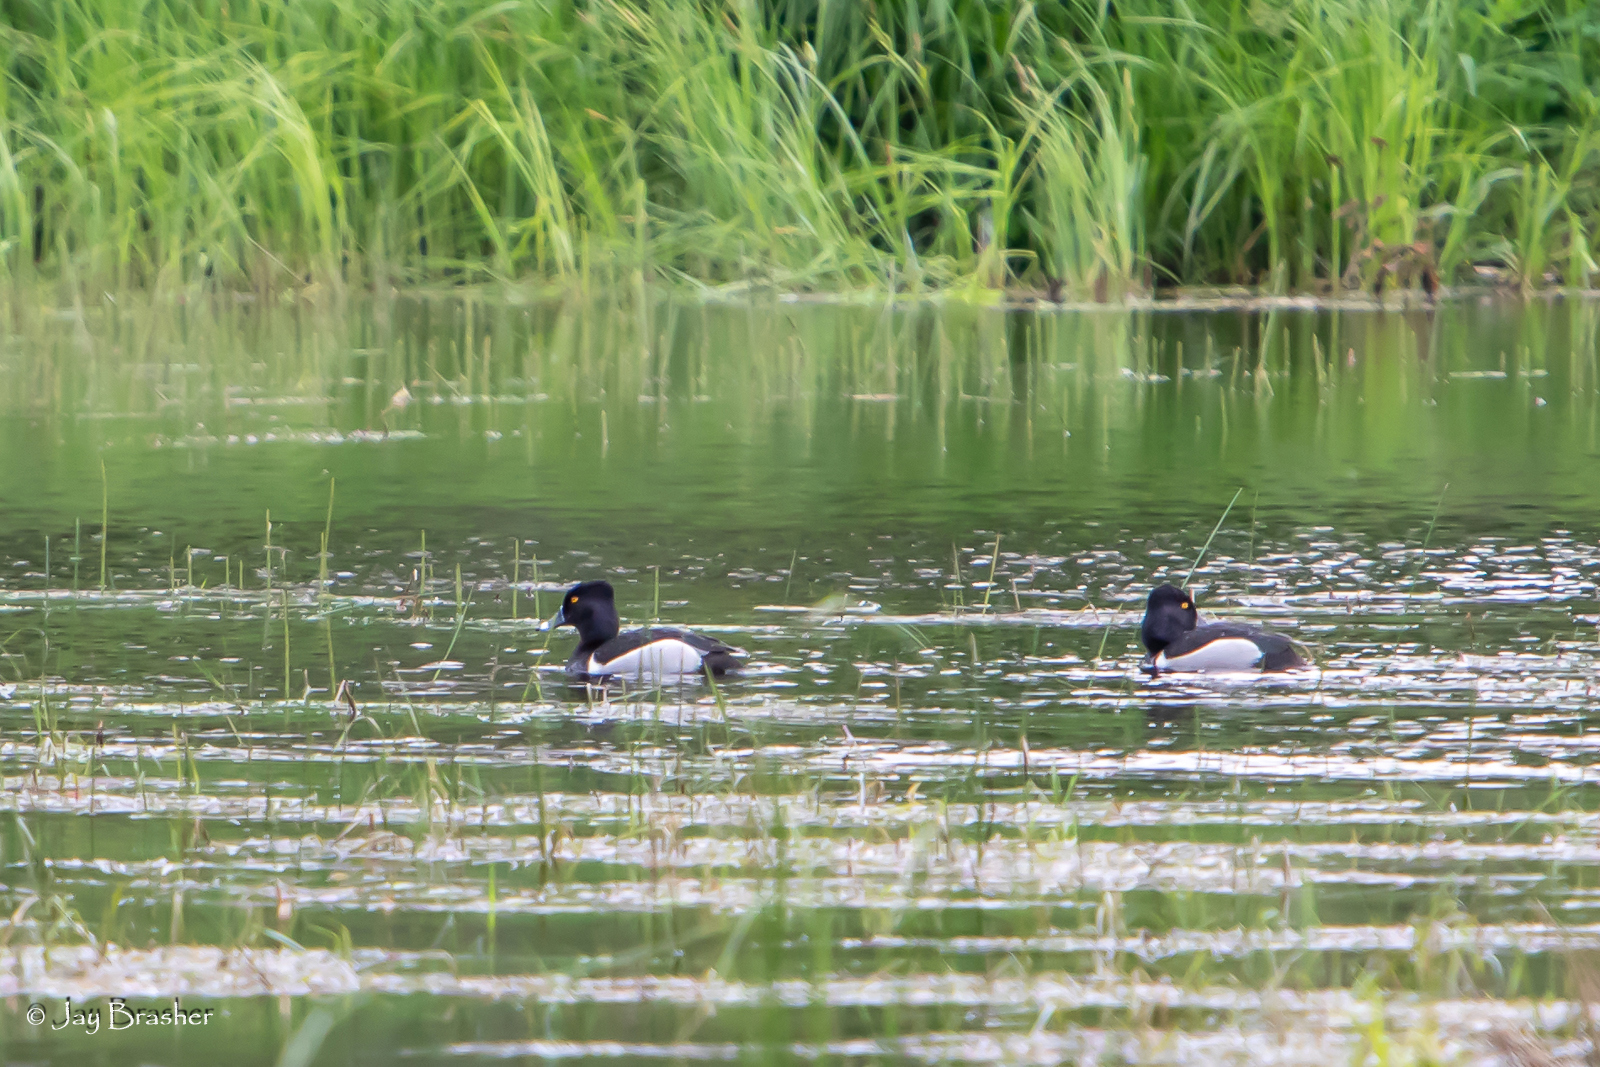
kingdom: Animalia
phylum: Chordata
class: Aves
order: Anseriformes
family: Anatidae
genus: Aythya
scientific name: Aythya collaris
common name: Ring-necked duck
